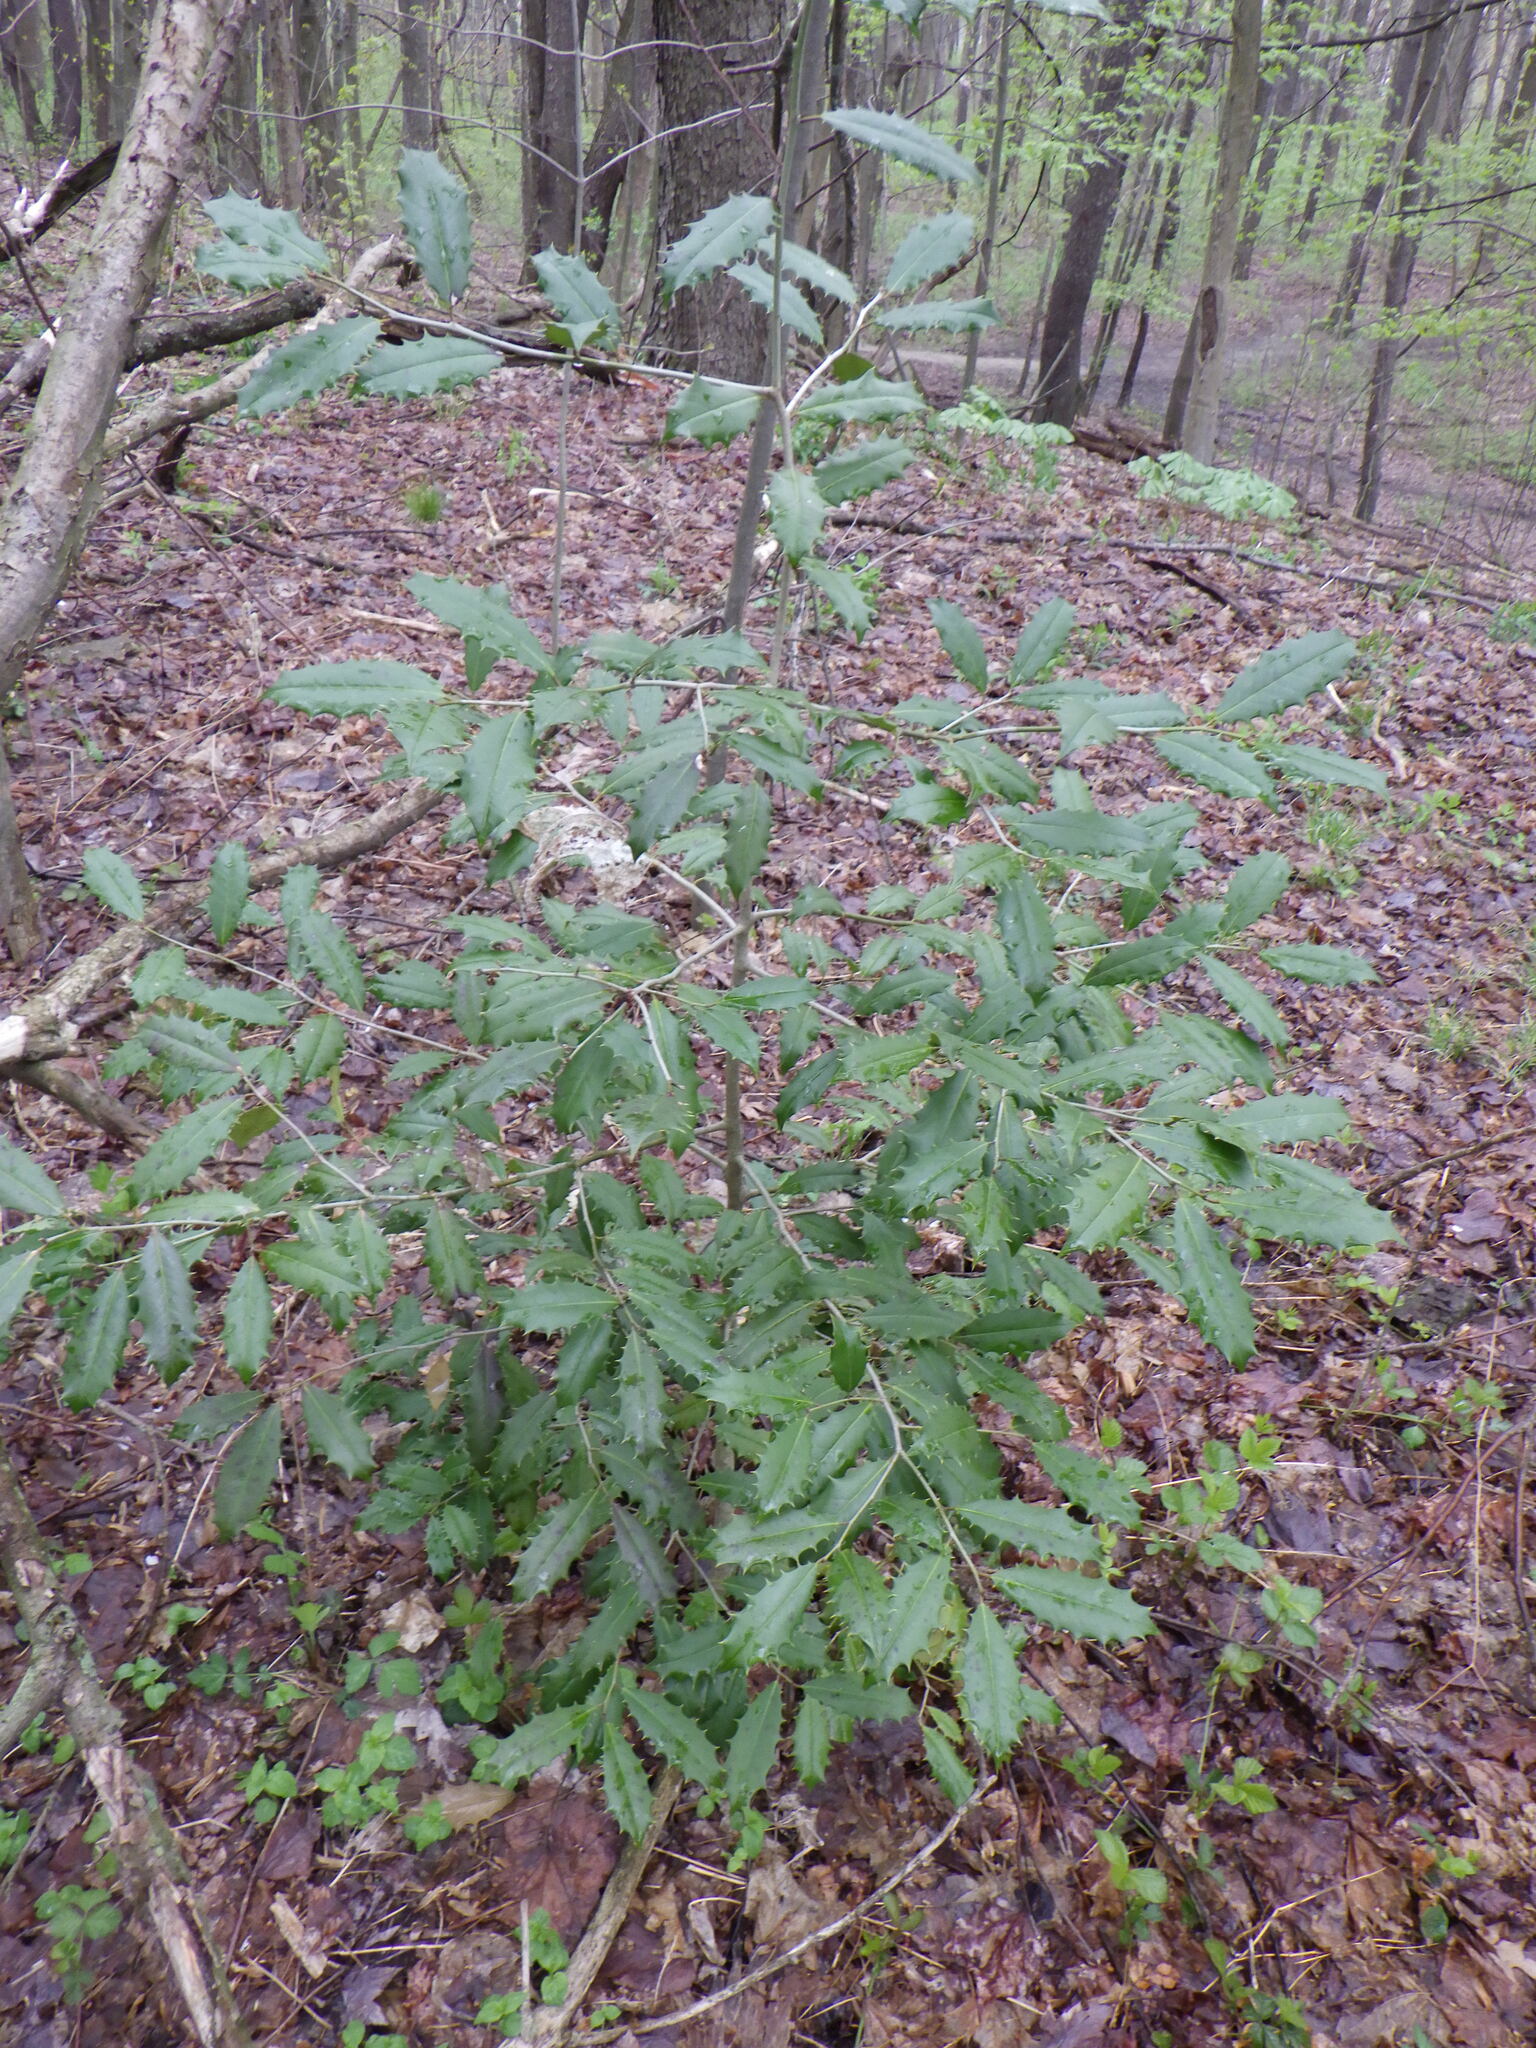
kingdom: Plantae
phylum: Tracheophyta
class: Magnoliopsida
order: Aquifoliales
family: Aquifoliaceae
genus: Ilex
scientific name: Ilex opaca
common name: American holly
